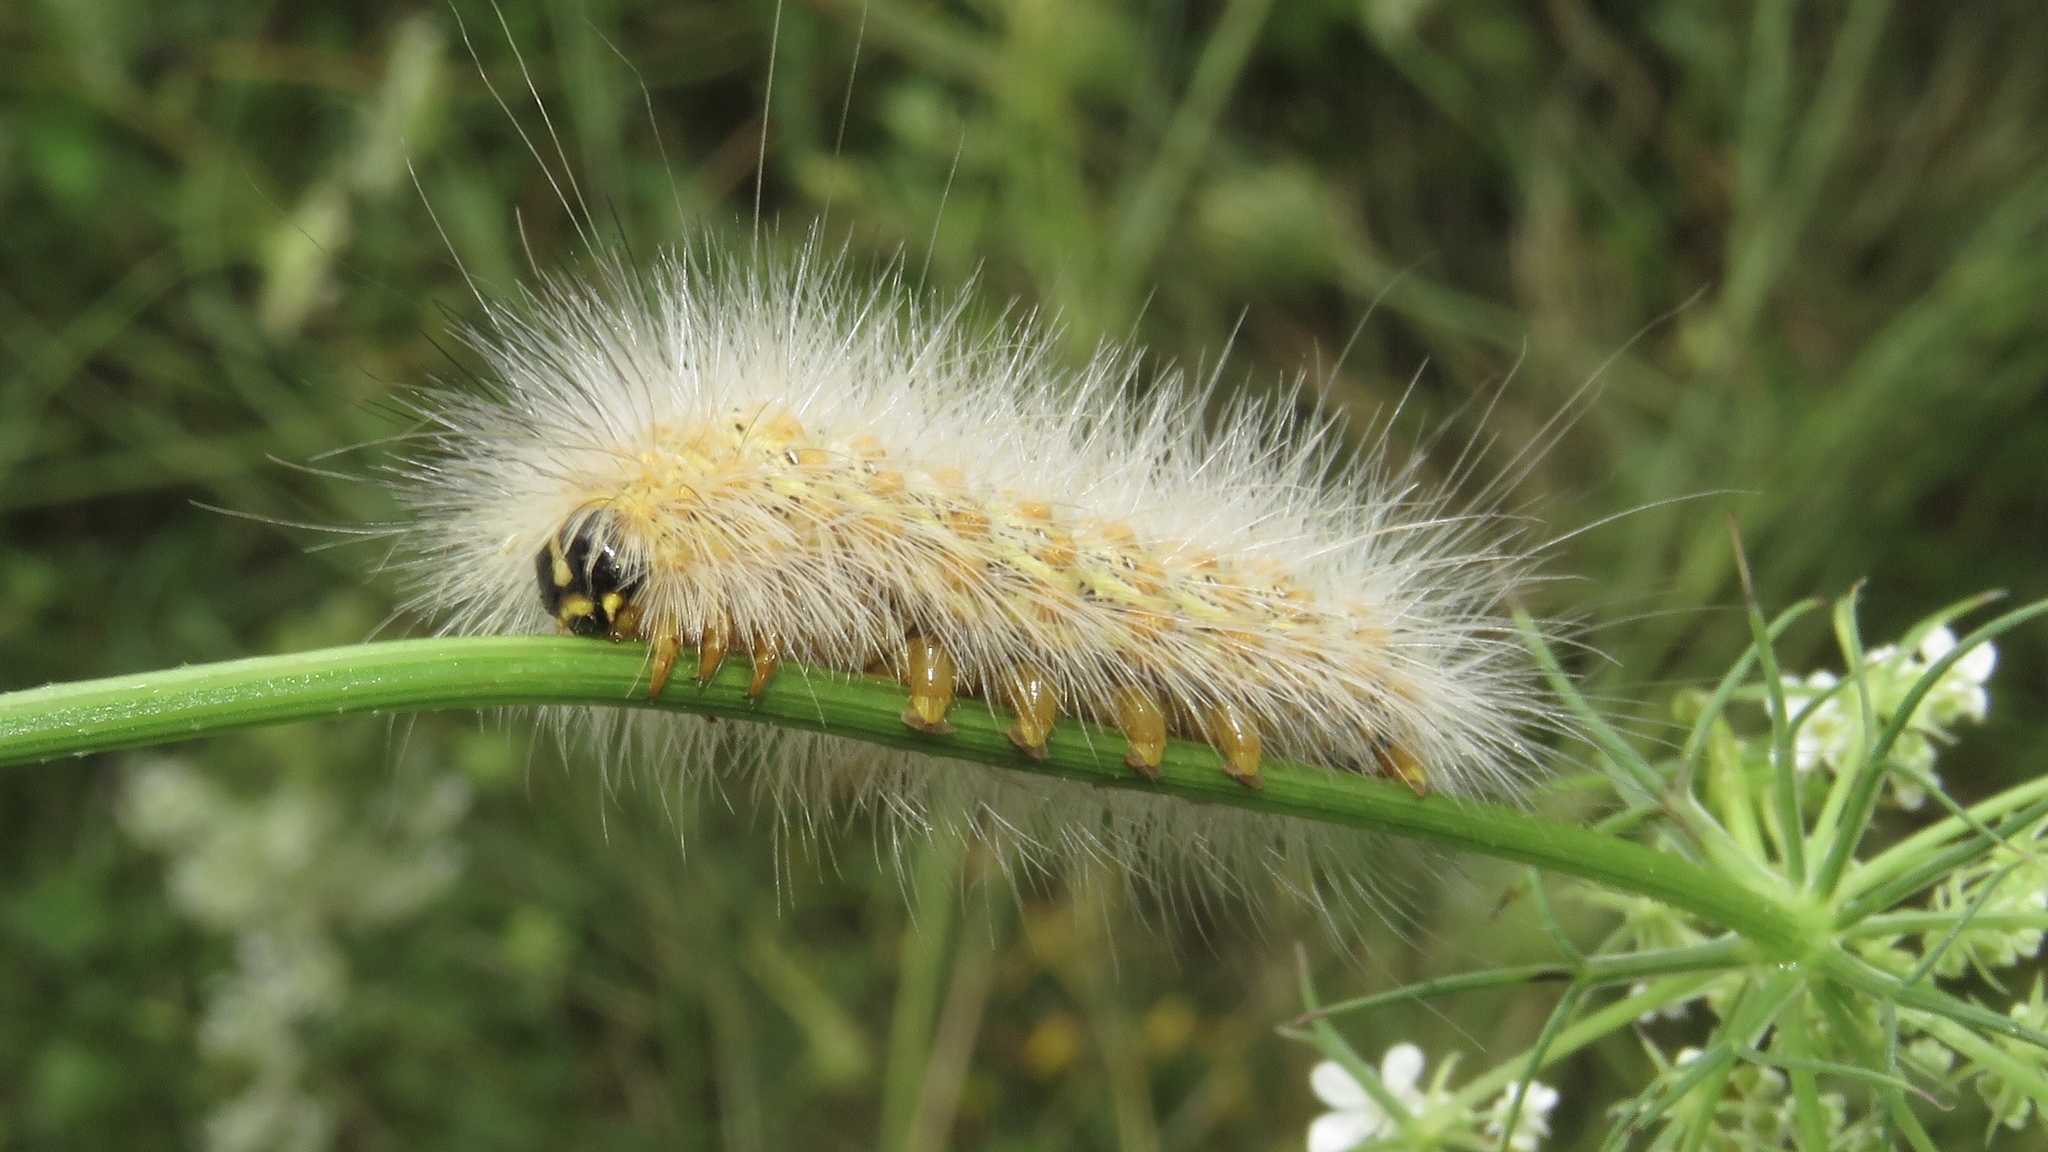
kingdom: Animalia
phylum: Arthropoda
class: Insecta
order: Lepidoptera
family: Erebidae
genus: Estigmene
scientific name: Estigmene acrea
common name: Salt marsh moth
